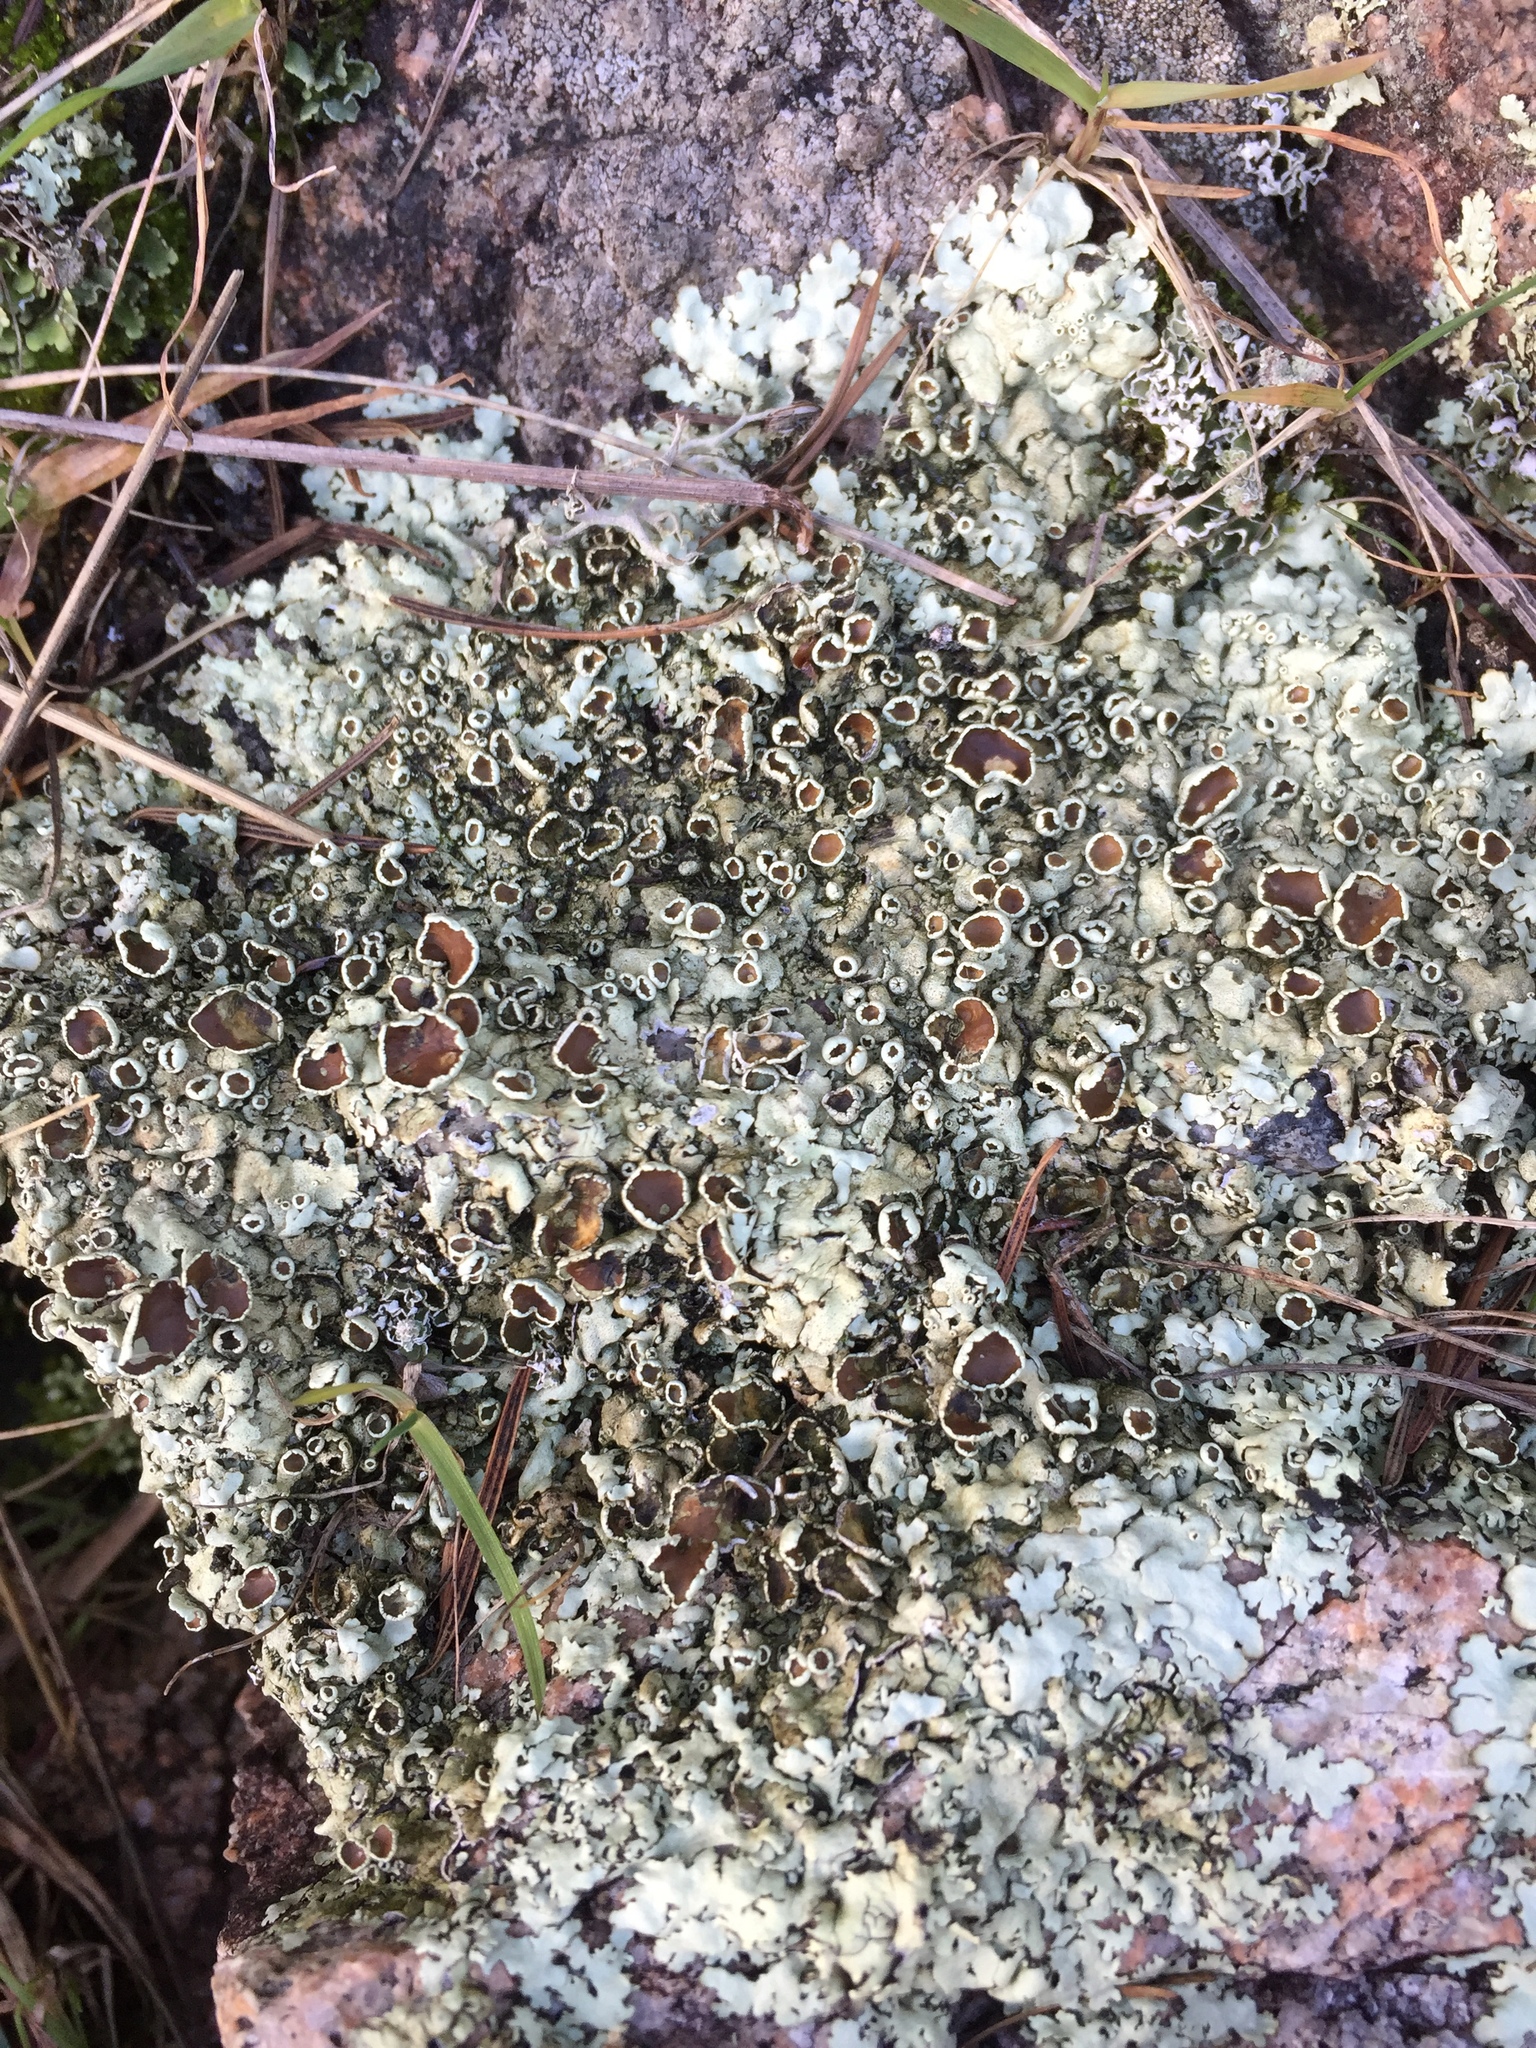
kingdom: Fungi
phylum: Ascomycota
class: Lecanoromycetes
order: Lecanorales
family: Parmeliaceae
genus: Xanthoparmelia
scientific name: Xanthoparmelia cumberlandia
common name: Cumberland rock shield
